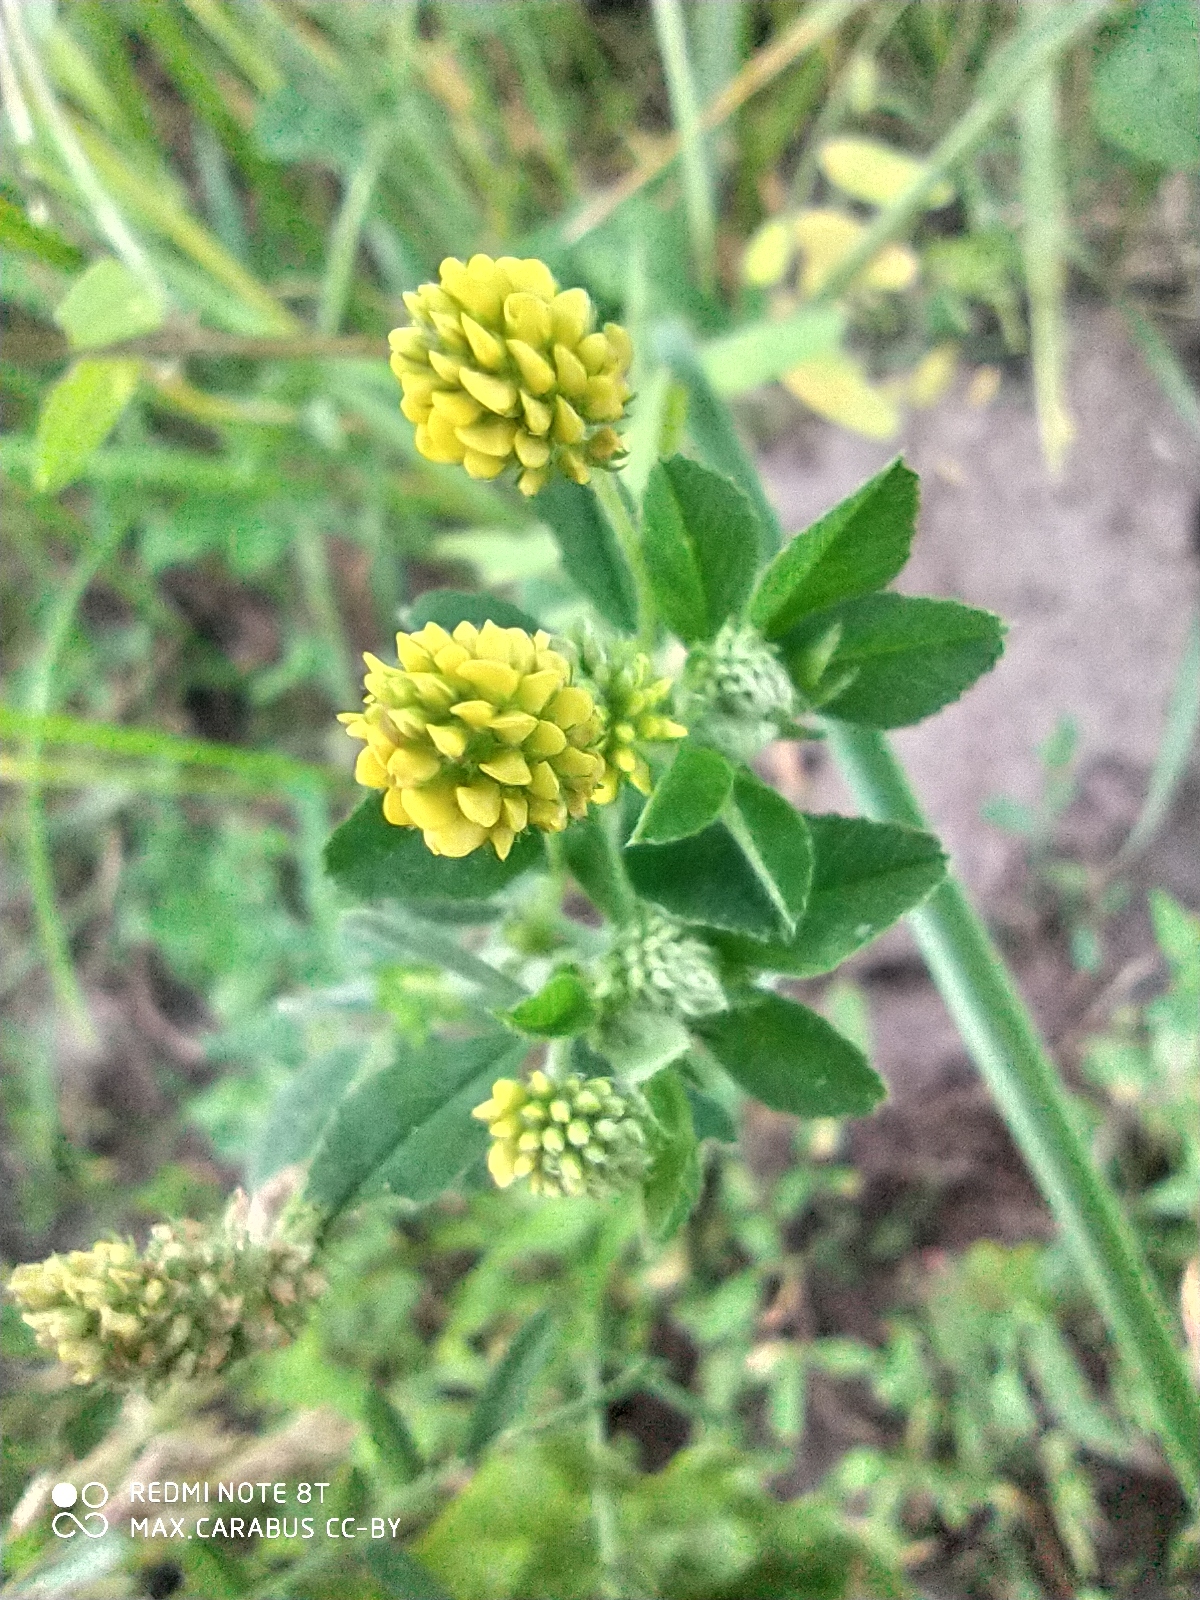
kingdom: Plantae
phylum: Tracheophyta
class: Magnoliopsida
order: Fabales
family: Fabaceae
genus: Medicago
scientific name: Medicago lupulina
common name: Black medick
